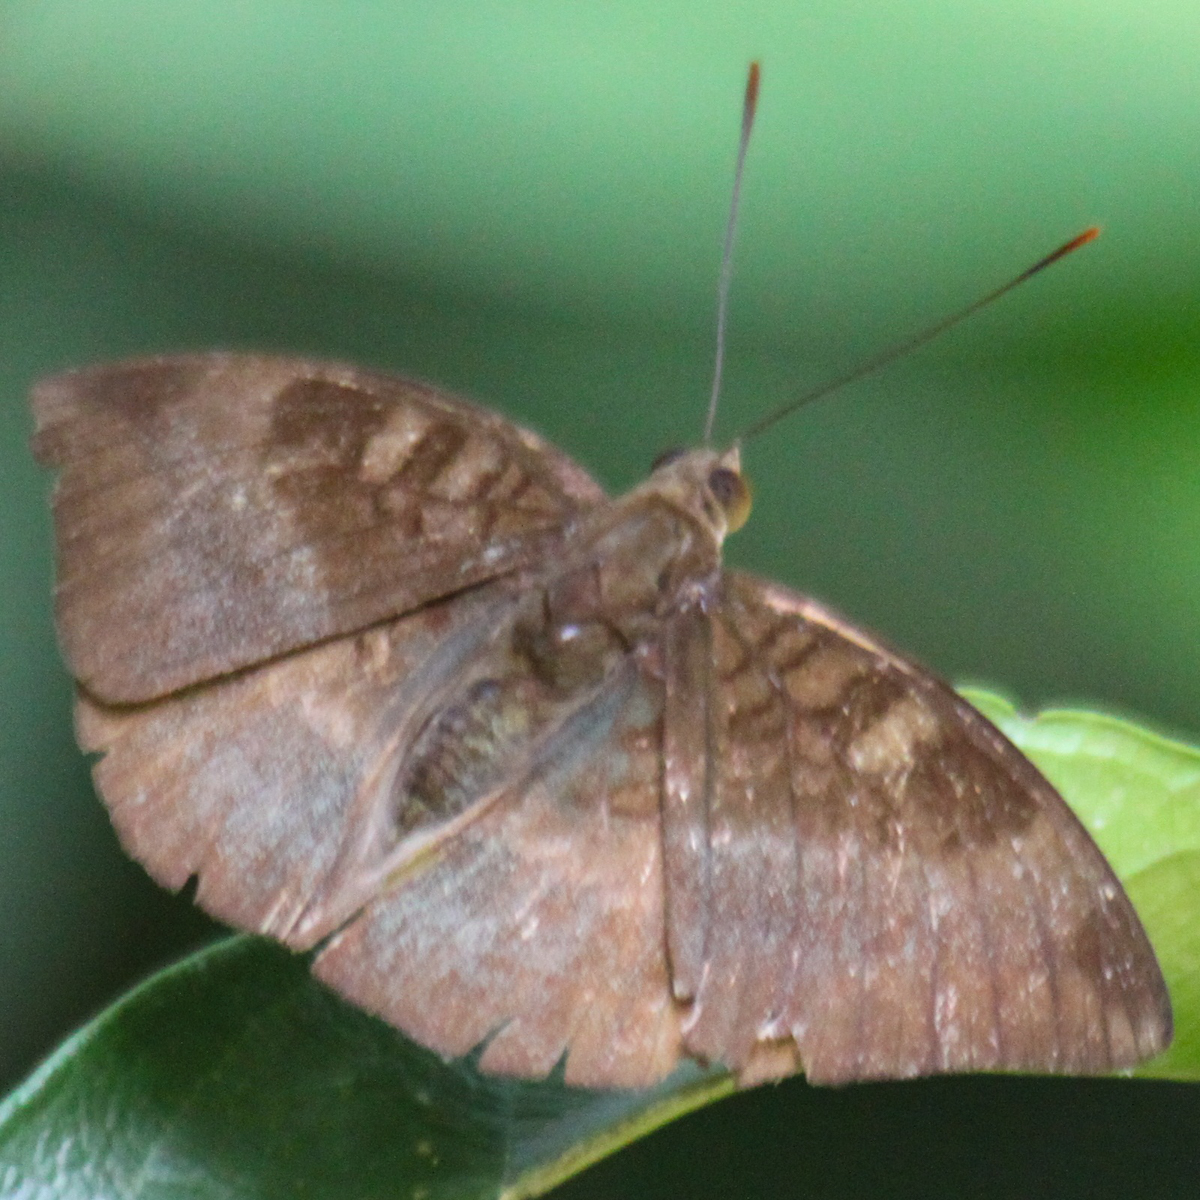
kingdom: Animalia
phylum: Arthropoda
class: Insecta
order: Lepidoptera
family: Nymphalidae
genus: Euthalia
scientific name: Euthalia monina
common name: Powdered baron
